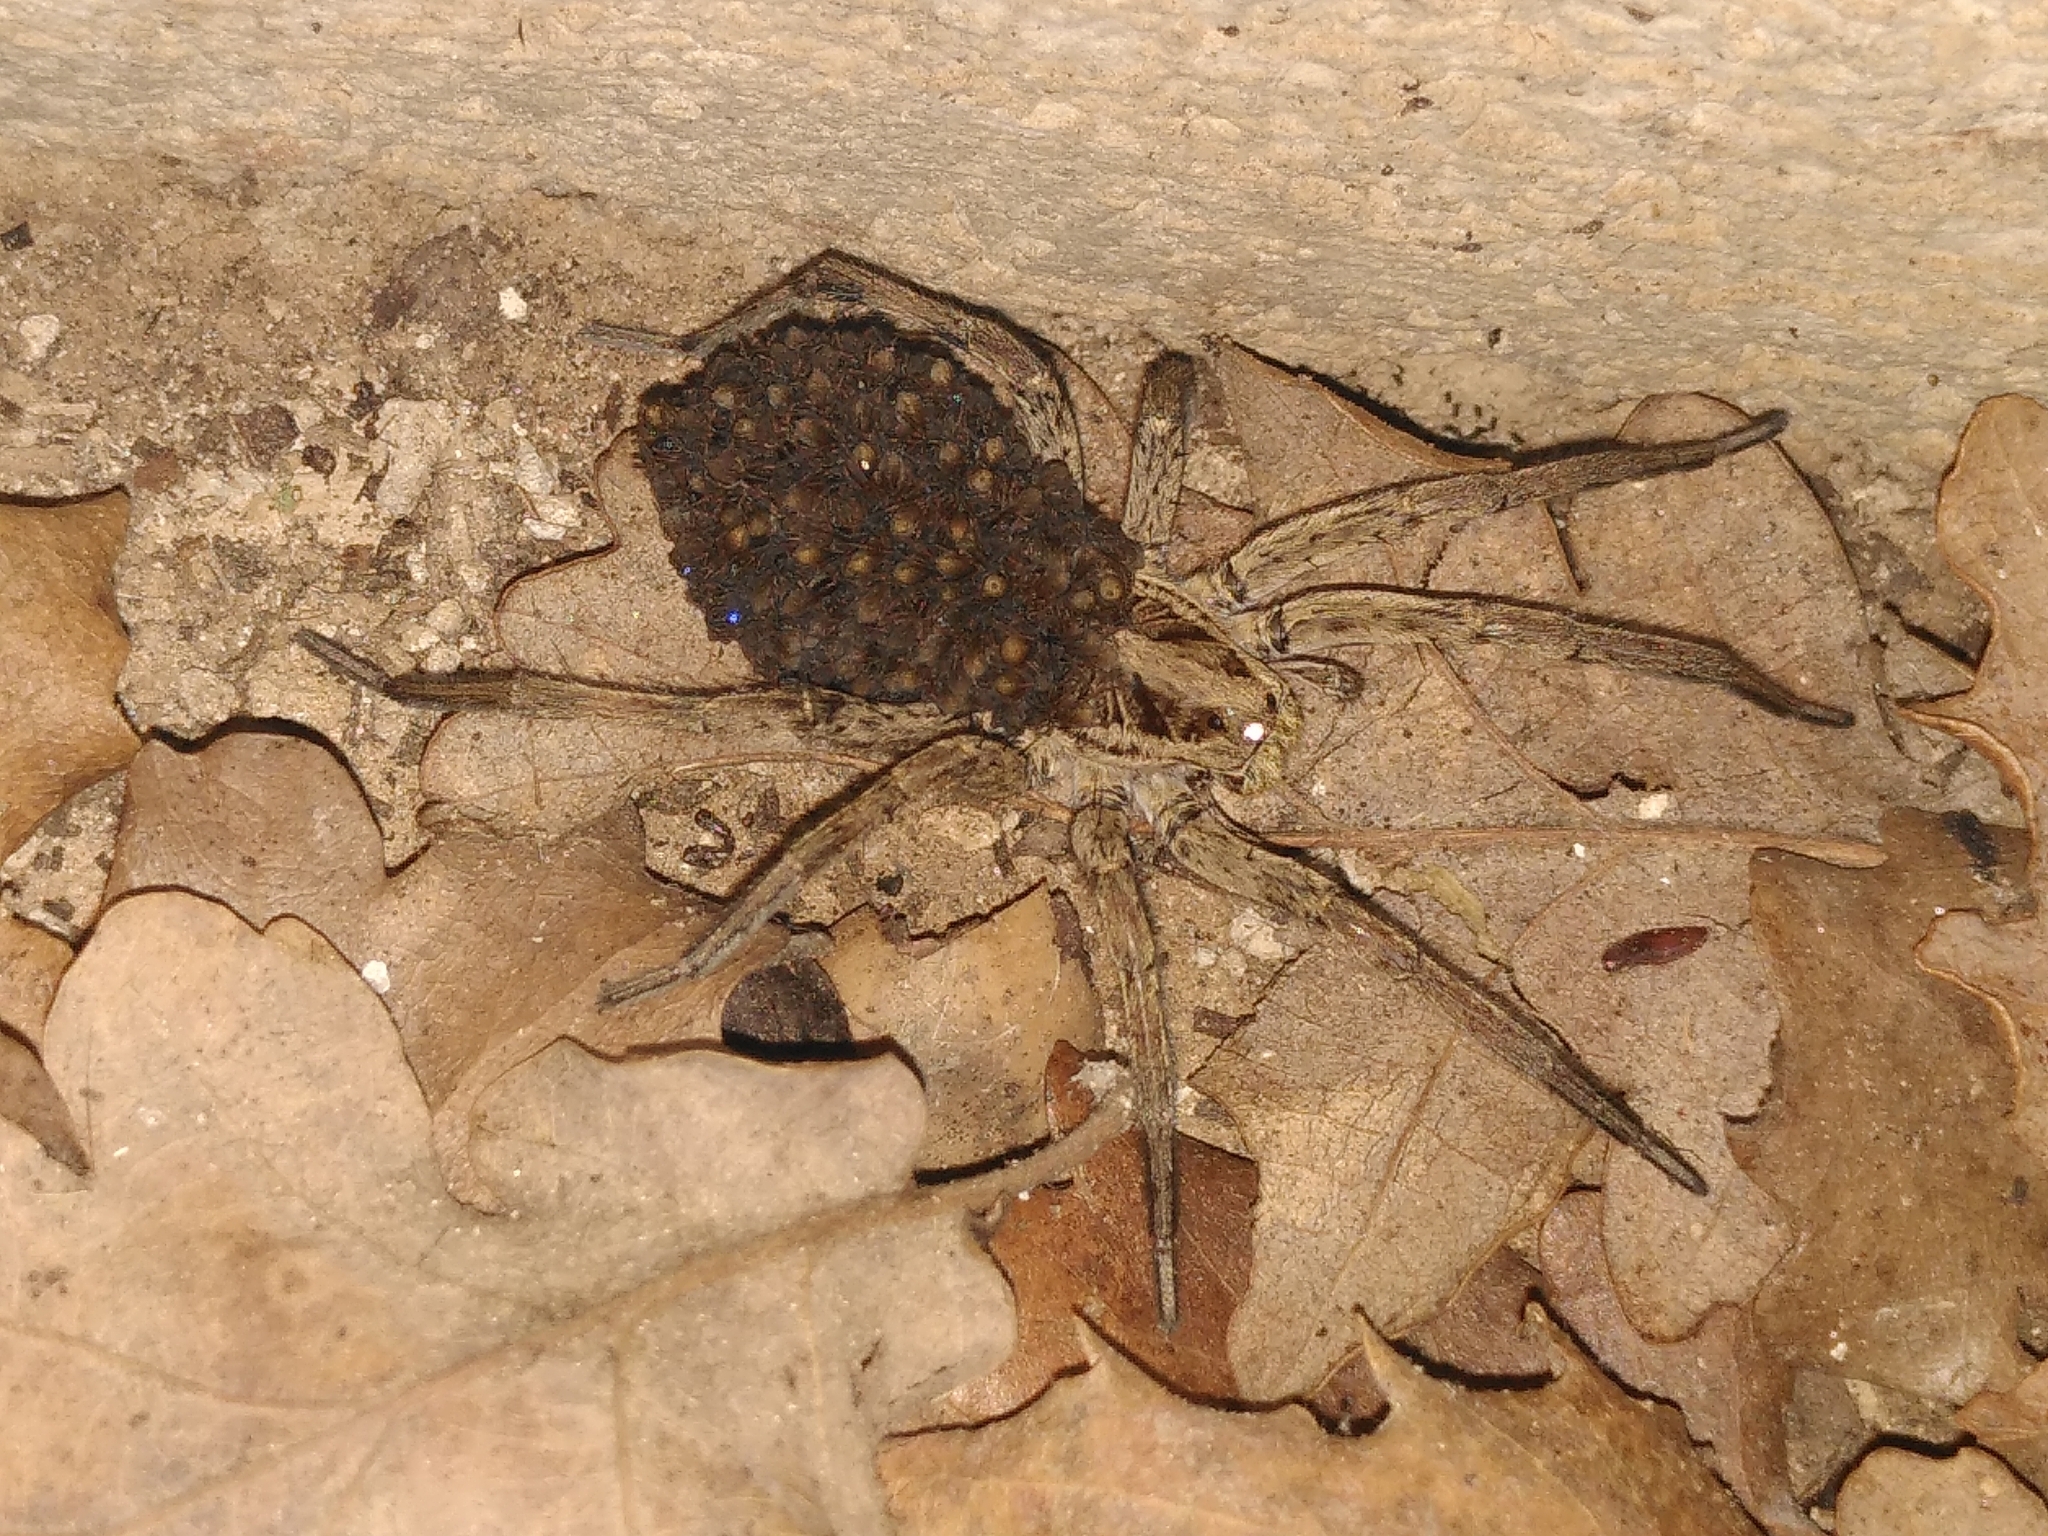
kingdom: Animalia
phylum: Arthropoda
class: Arachnida
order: Araneae
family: Lycosidae
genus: Hogna
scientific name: Hogna radiata
